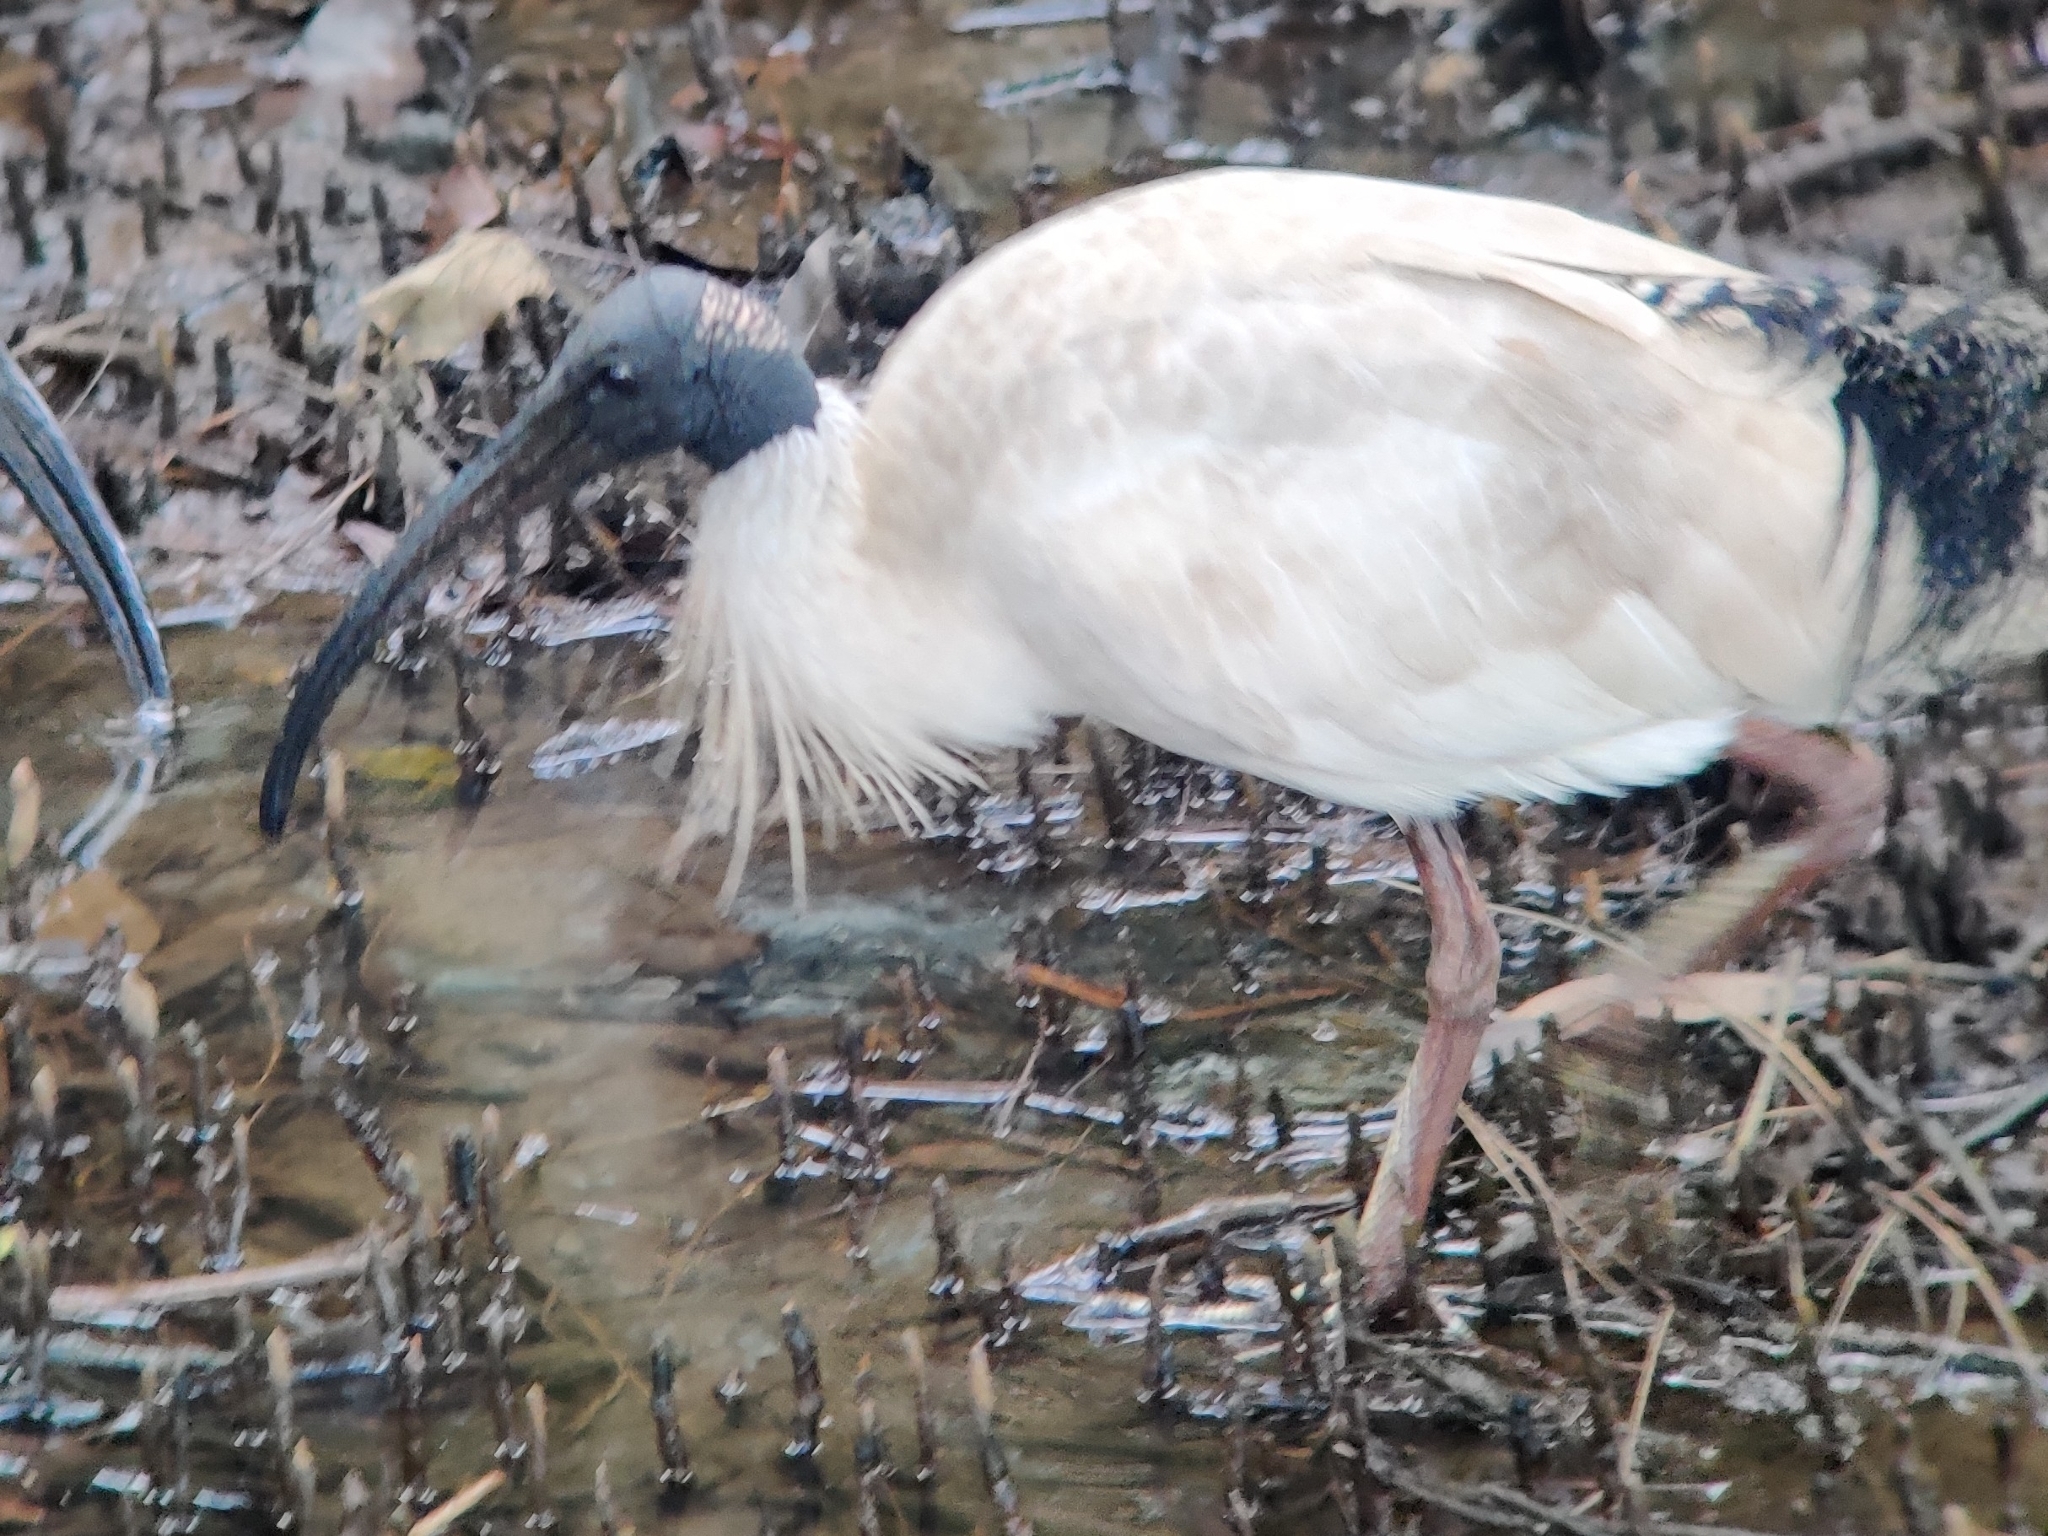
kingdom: Animalia
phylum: Chordata
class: Aves
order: Pelecaniformes
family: Threskiornithidae
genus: Threskiornis
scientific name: Threskiornis molucca
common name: Australian white ibis
